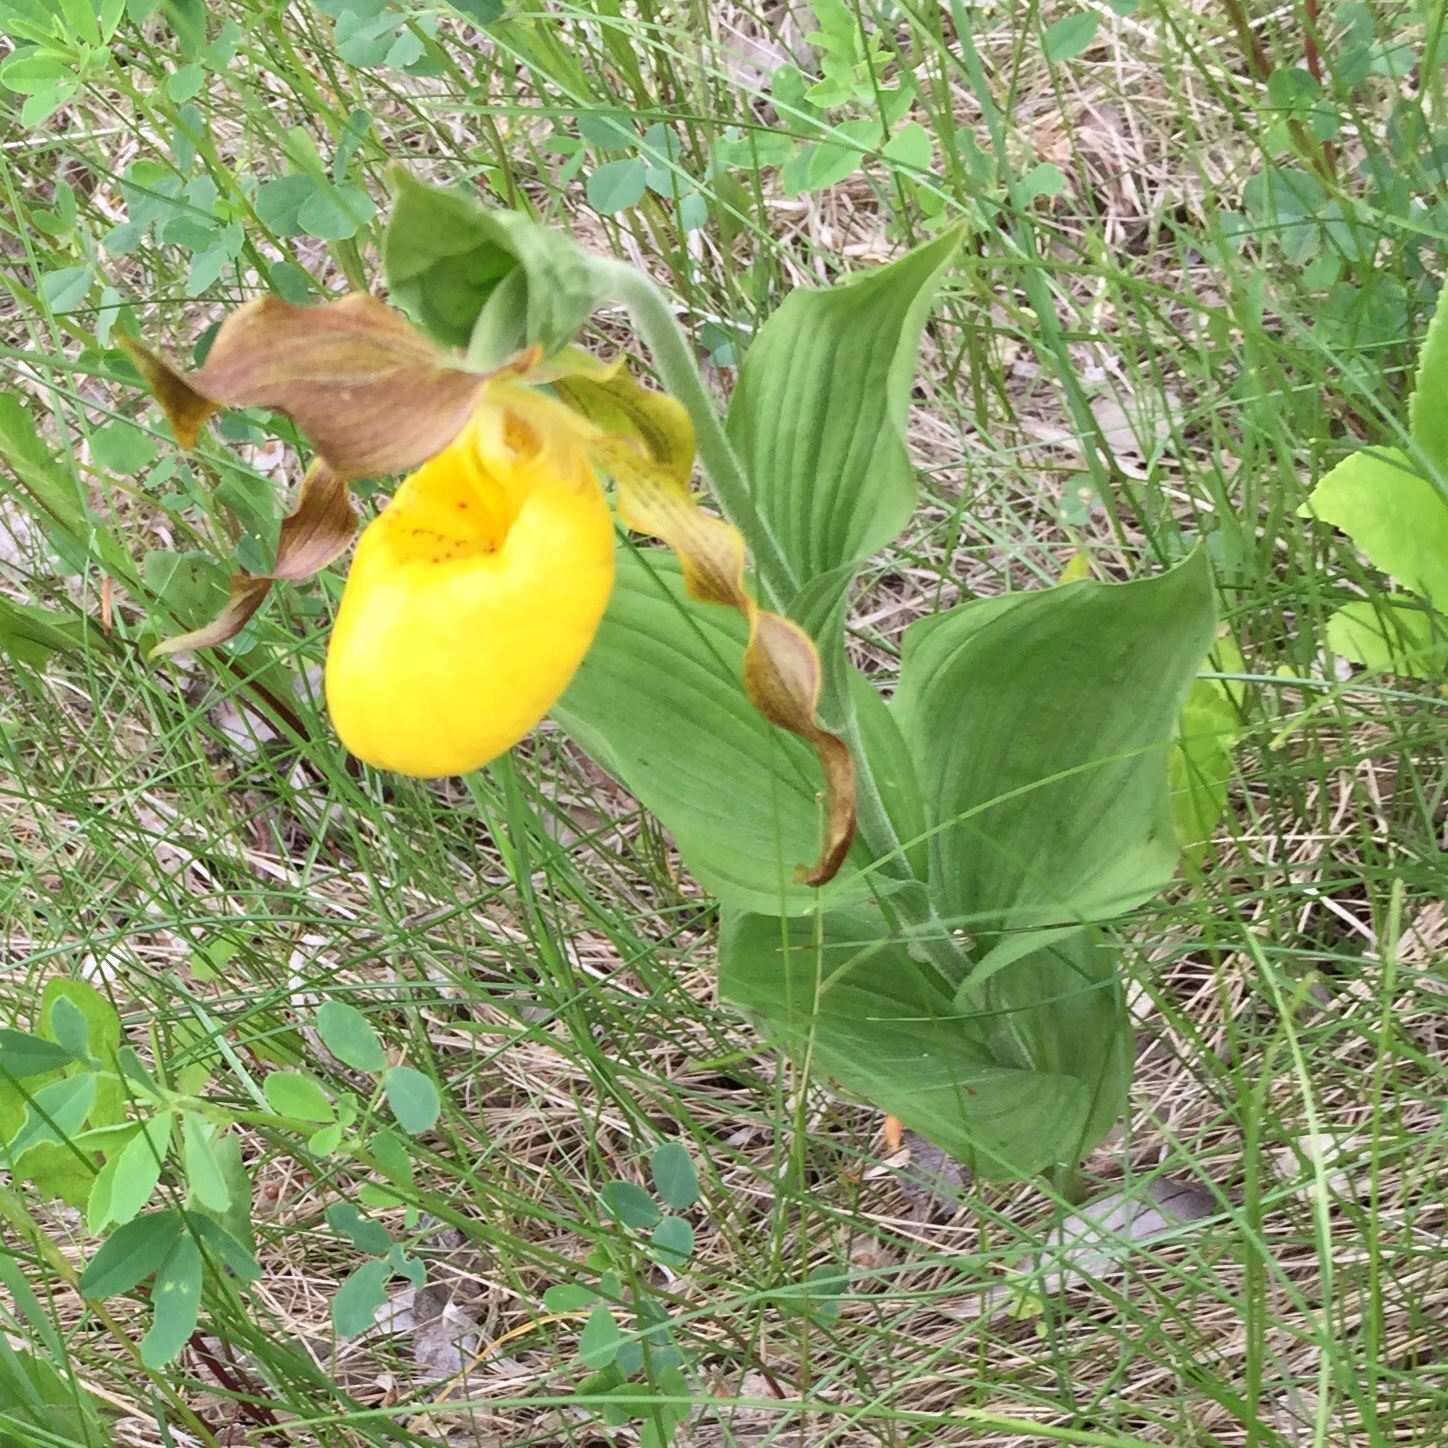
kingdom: Plantae
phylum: Tracheophyta
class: Liliopsida
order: Asparagales
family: Orchidaceae
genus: Cypripedium
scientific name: Cypripedium parviflorum
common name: American yellow lady's-slipper
